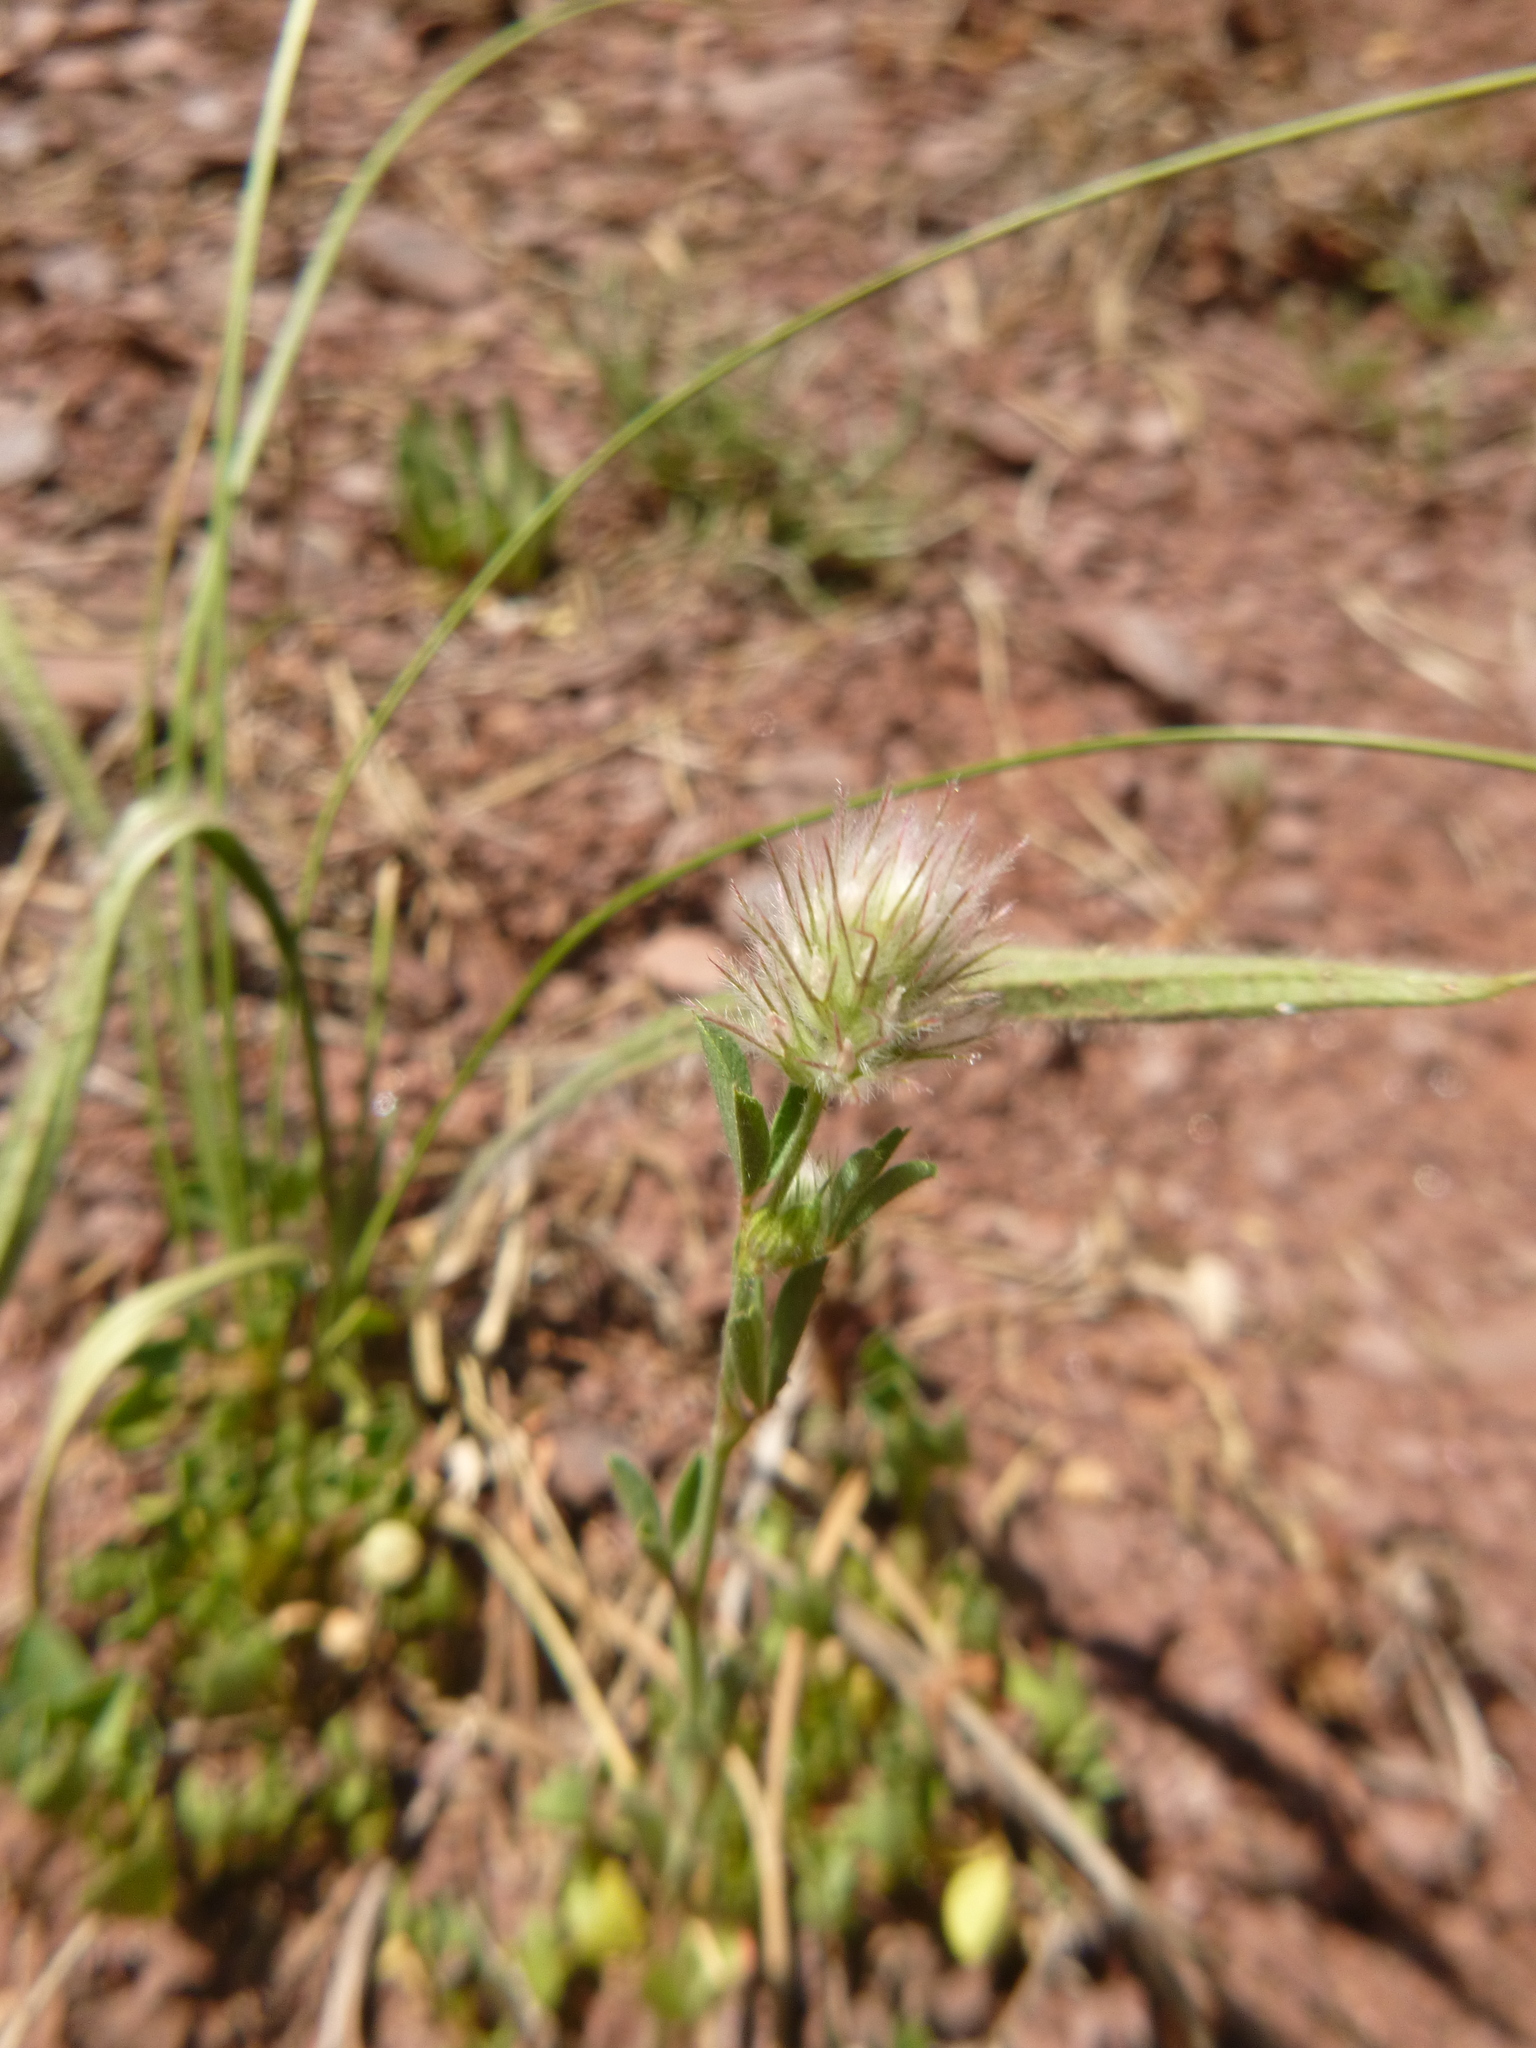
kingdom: Plantae
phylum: Tracheophyta
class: Magnoliopsida
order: Fabales
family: Fabaceae
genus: Trifolium
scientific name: Trifolium arvense
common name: Hare's-foot clover
